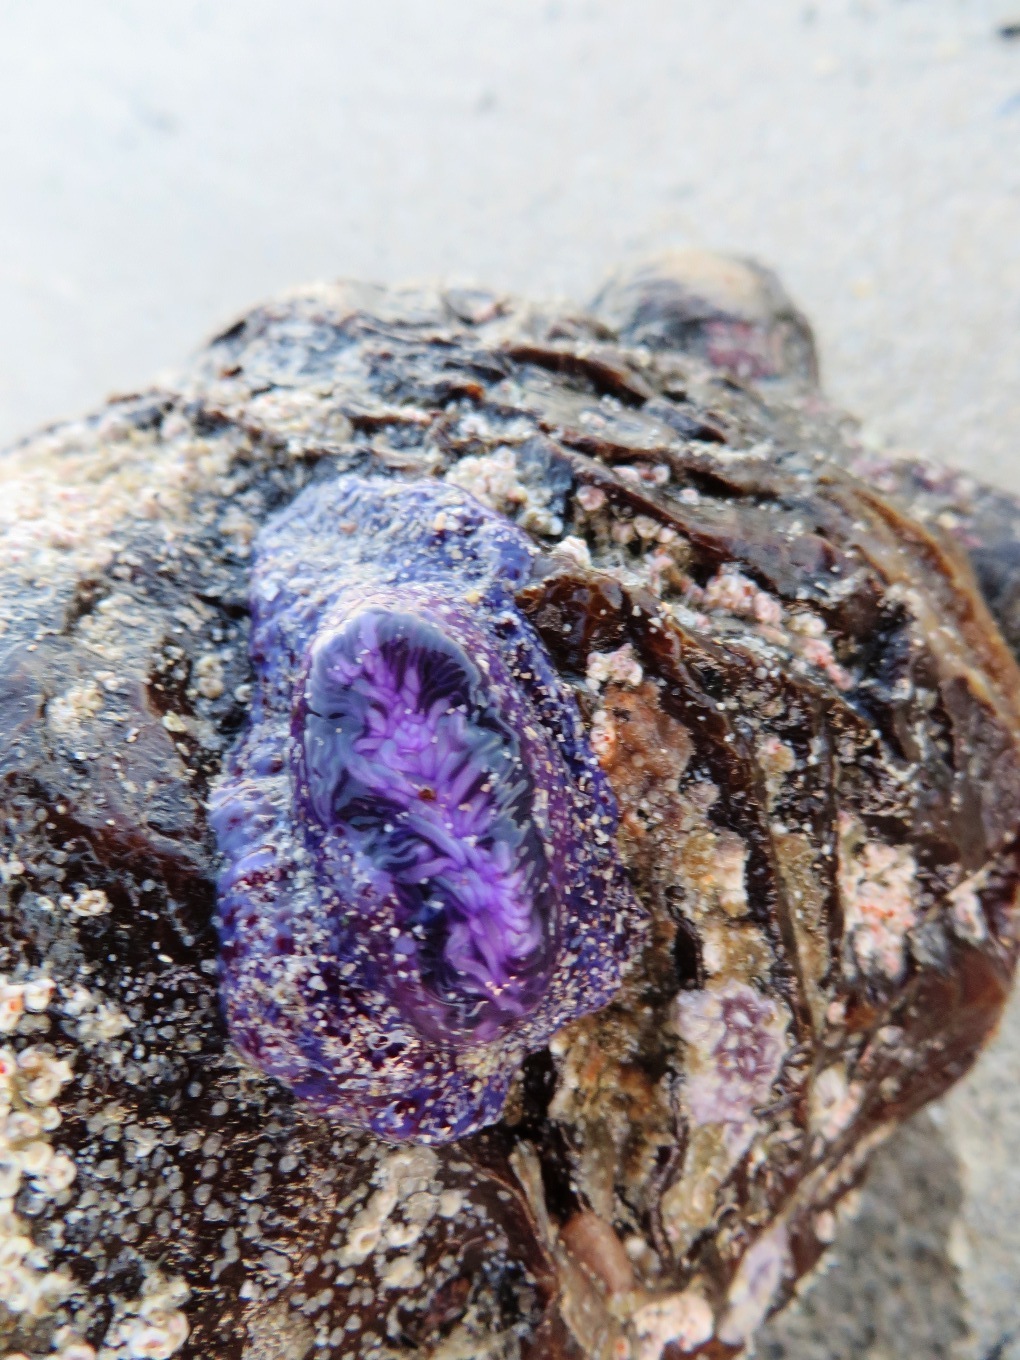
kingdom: Animalia
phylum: Cnidaria
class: Anthozoa
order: Actiniaria
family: Actiniidae
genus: Bunodactis
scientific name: Bunodactis reynaudi
